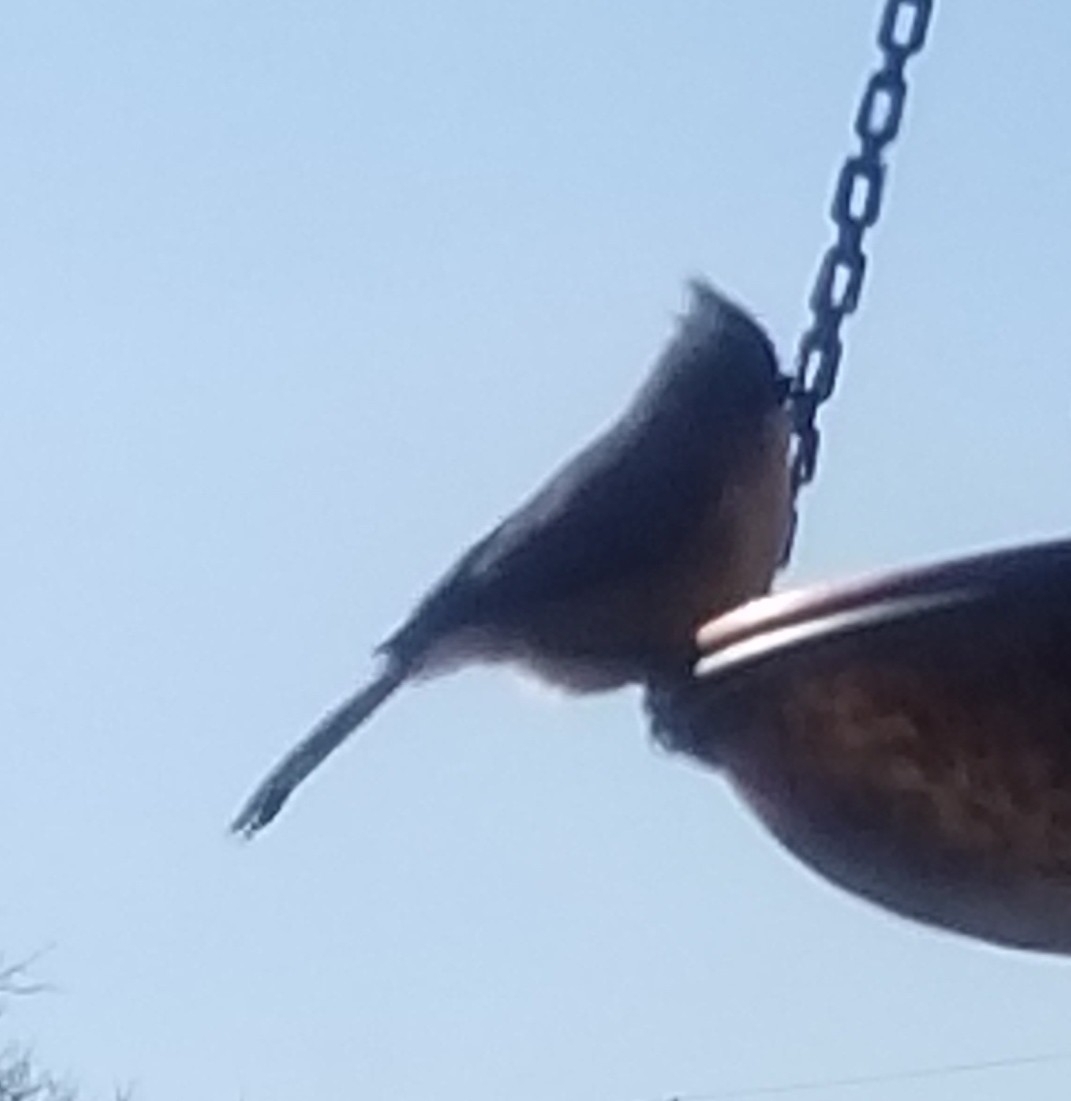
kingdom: Animalia
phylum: Chordata
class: Aves
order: Passeriformes
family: Paridae
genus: Baeolophus
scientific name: Baeolophus bicolor
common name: Tufted titmouse
